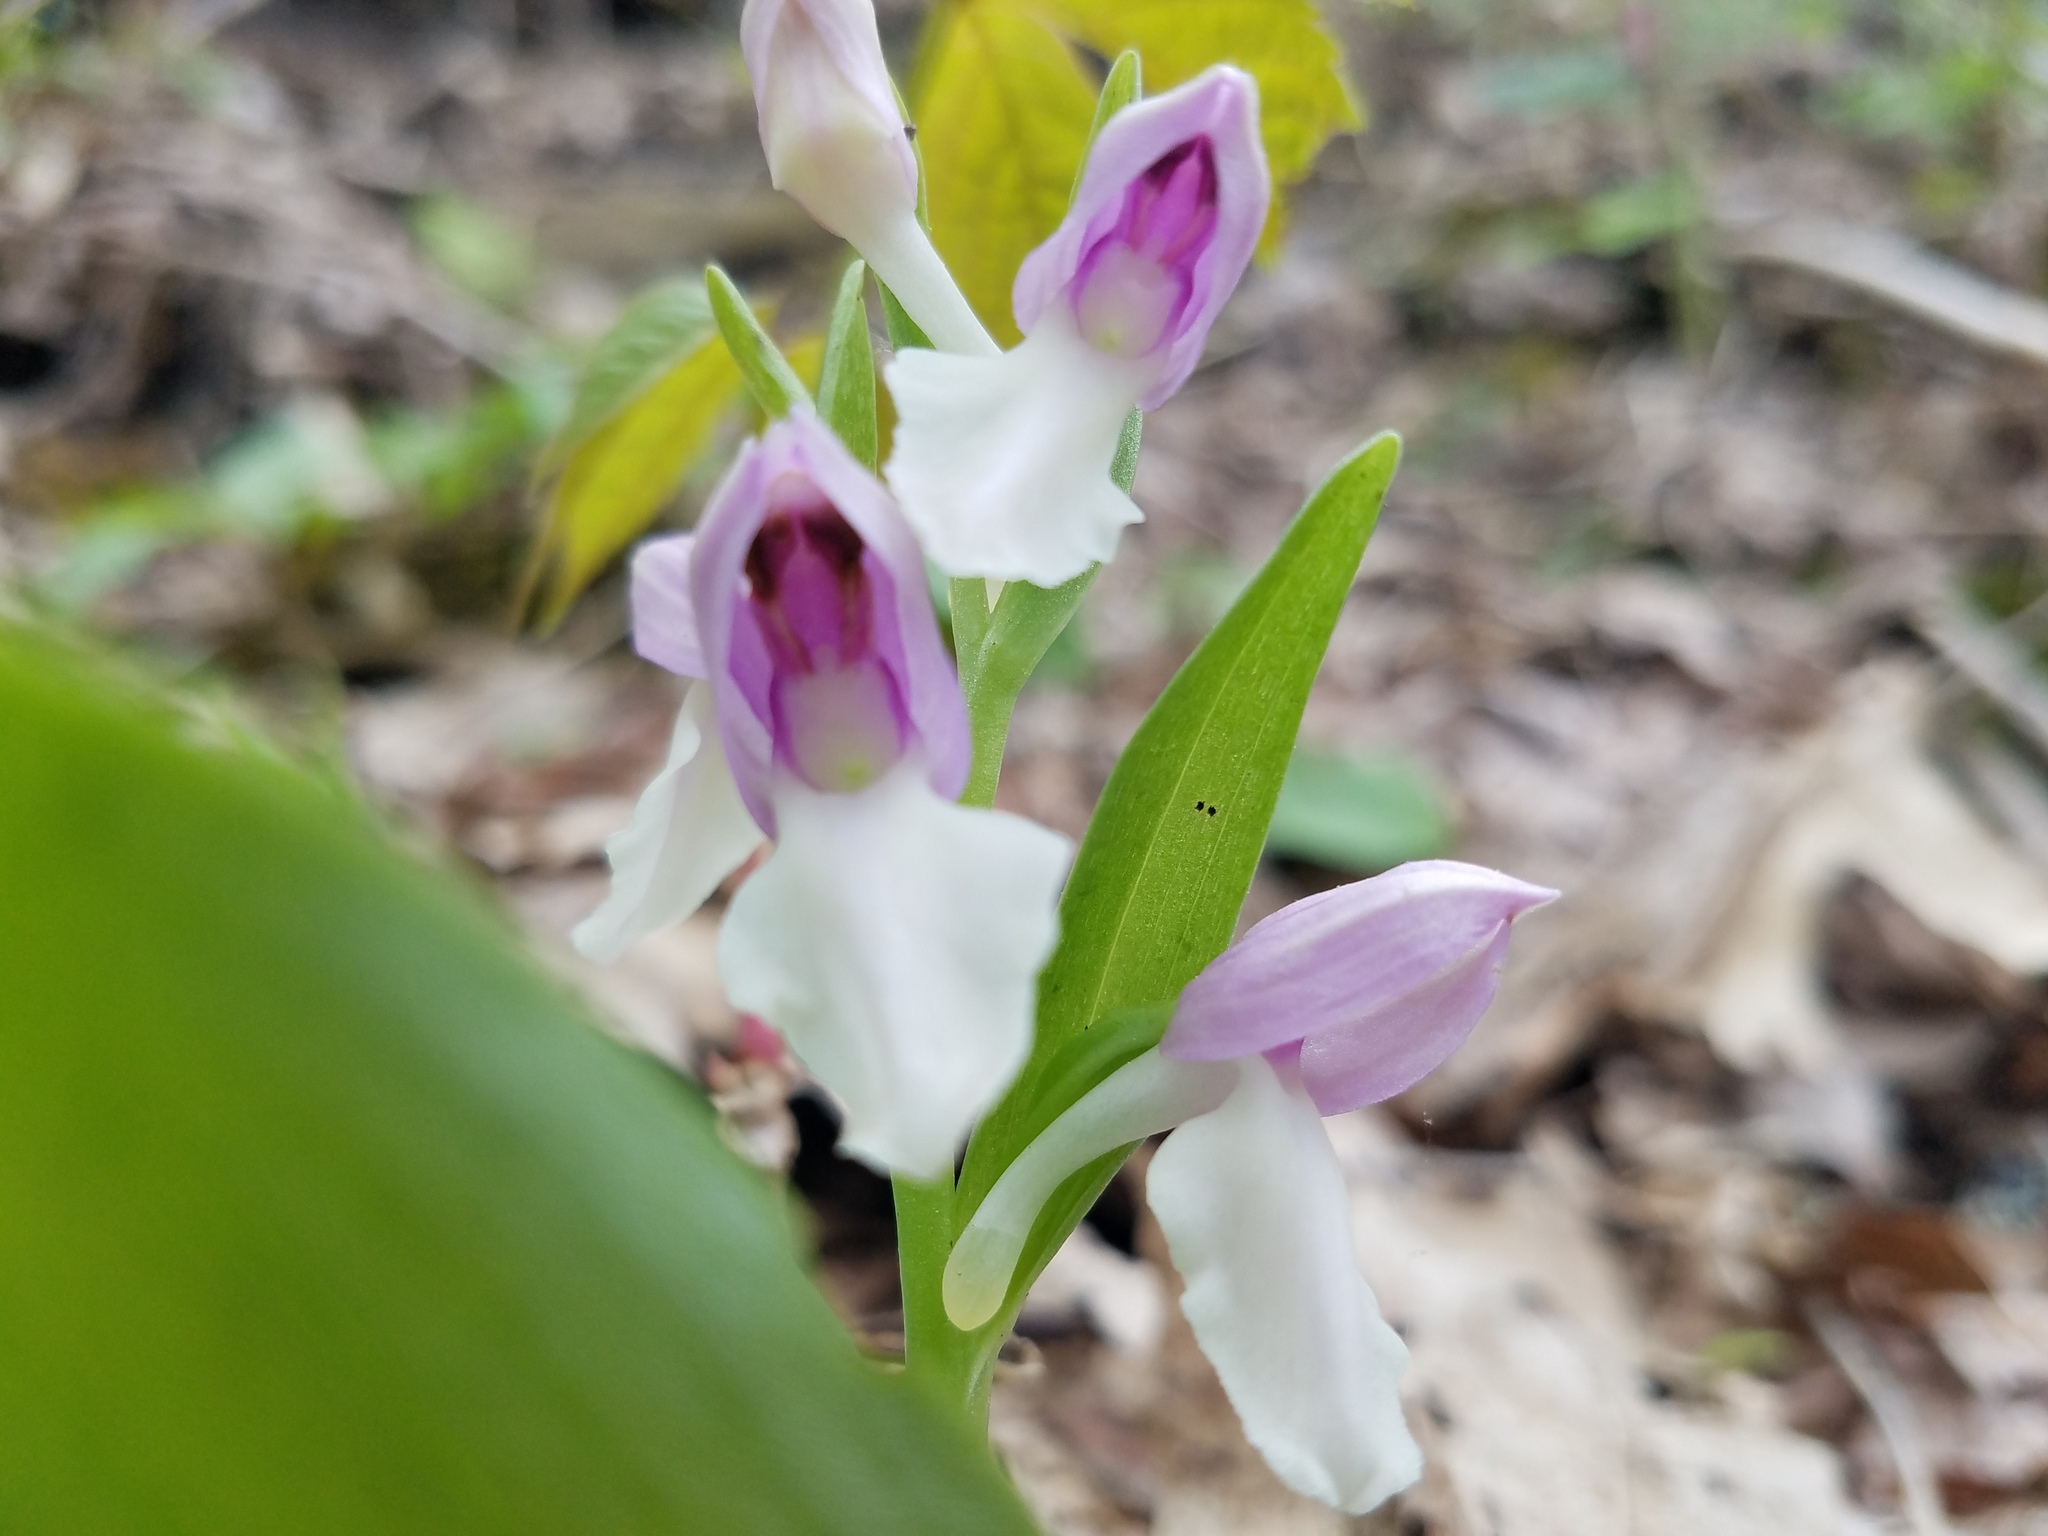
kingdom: Plantae
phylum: Tracheophyta
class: Liliopsida
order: Asparagales
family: Orchidaceae
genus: Galearis
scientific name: Galearis spectabilis
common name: Purple-hooded orchis
